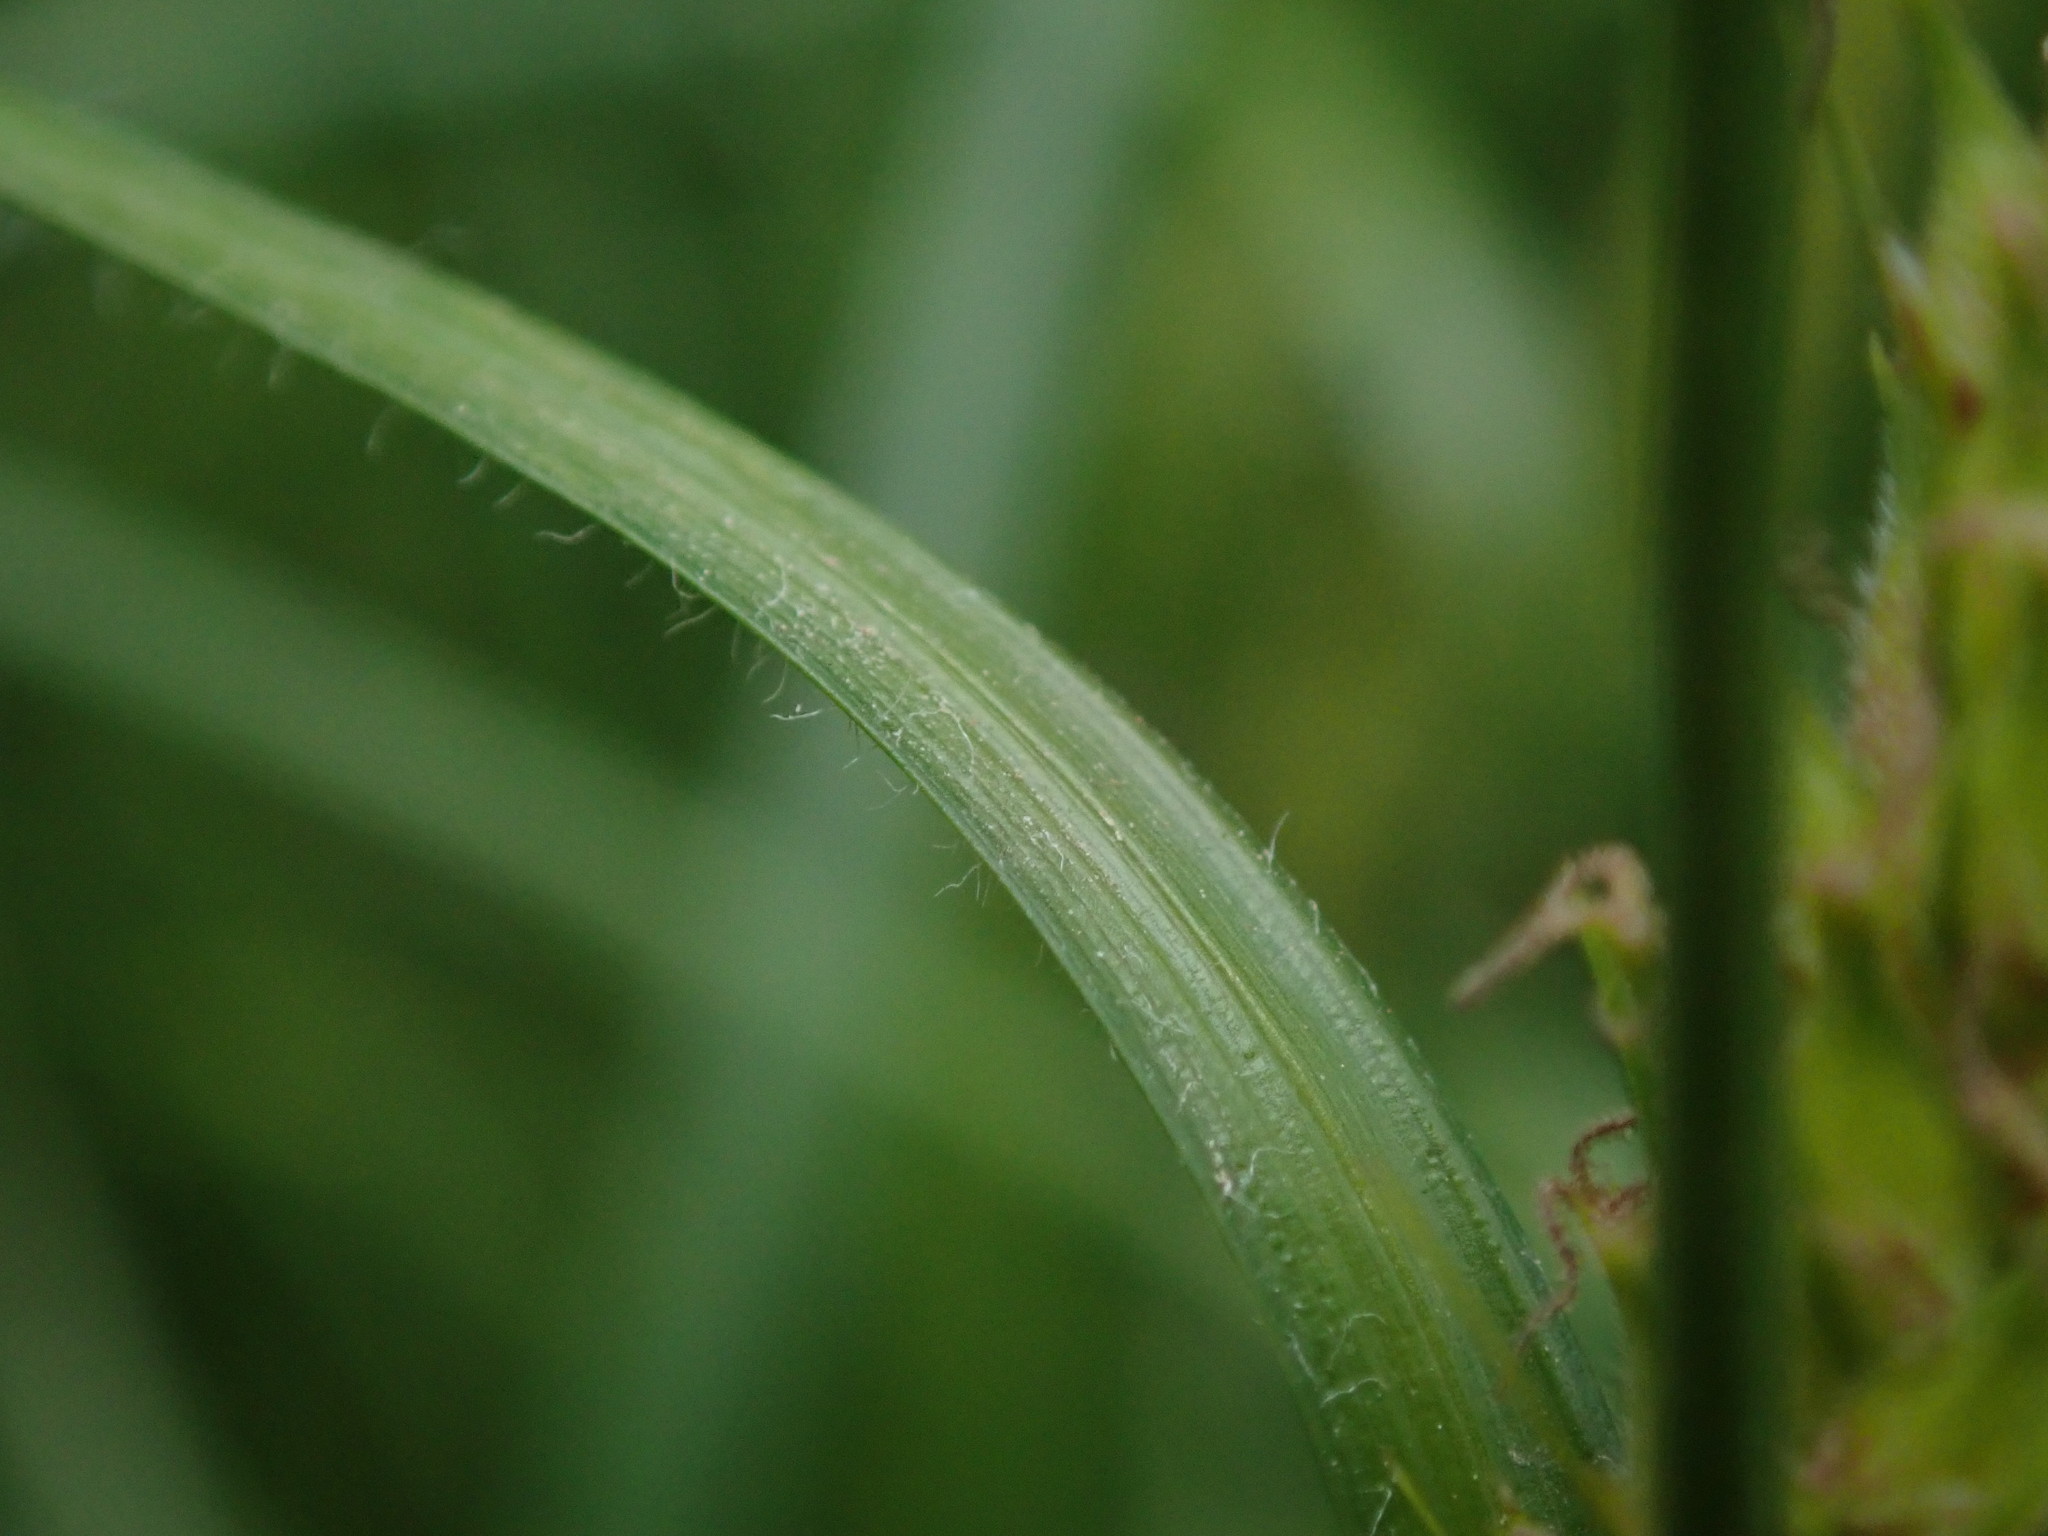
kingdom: Plantae
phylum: Tracheophyta
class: Liliopsida
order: Poales
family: Cyperaceae
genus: Carex
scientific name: Carex hirta
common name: Hairy sedge
